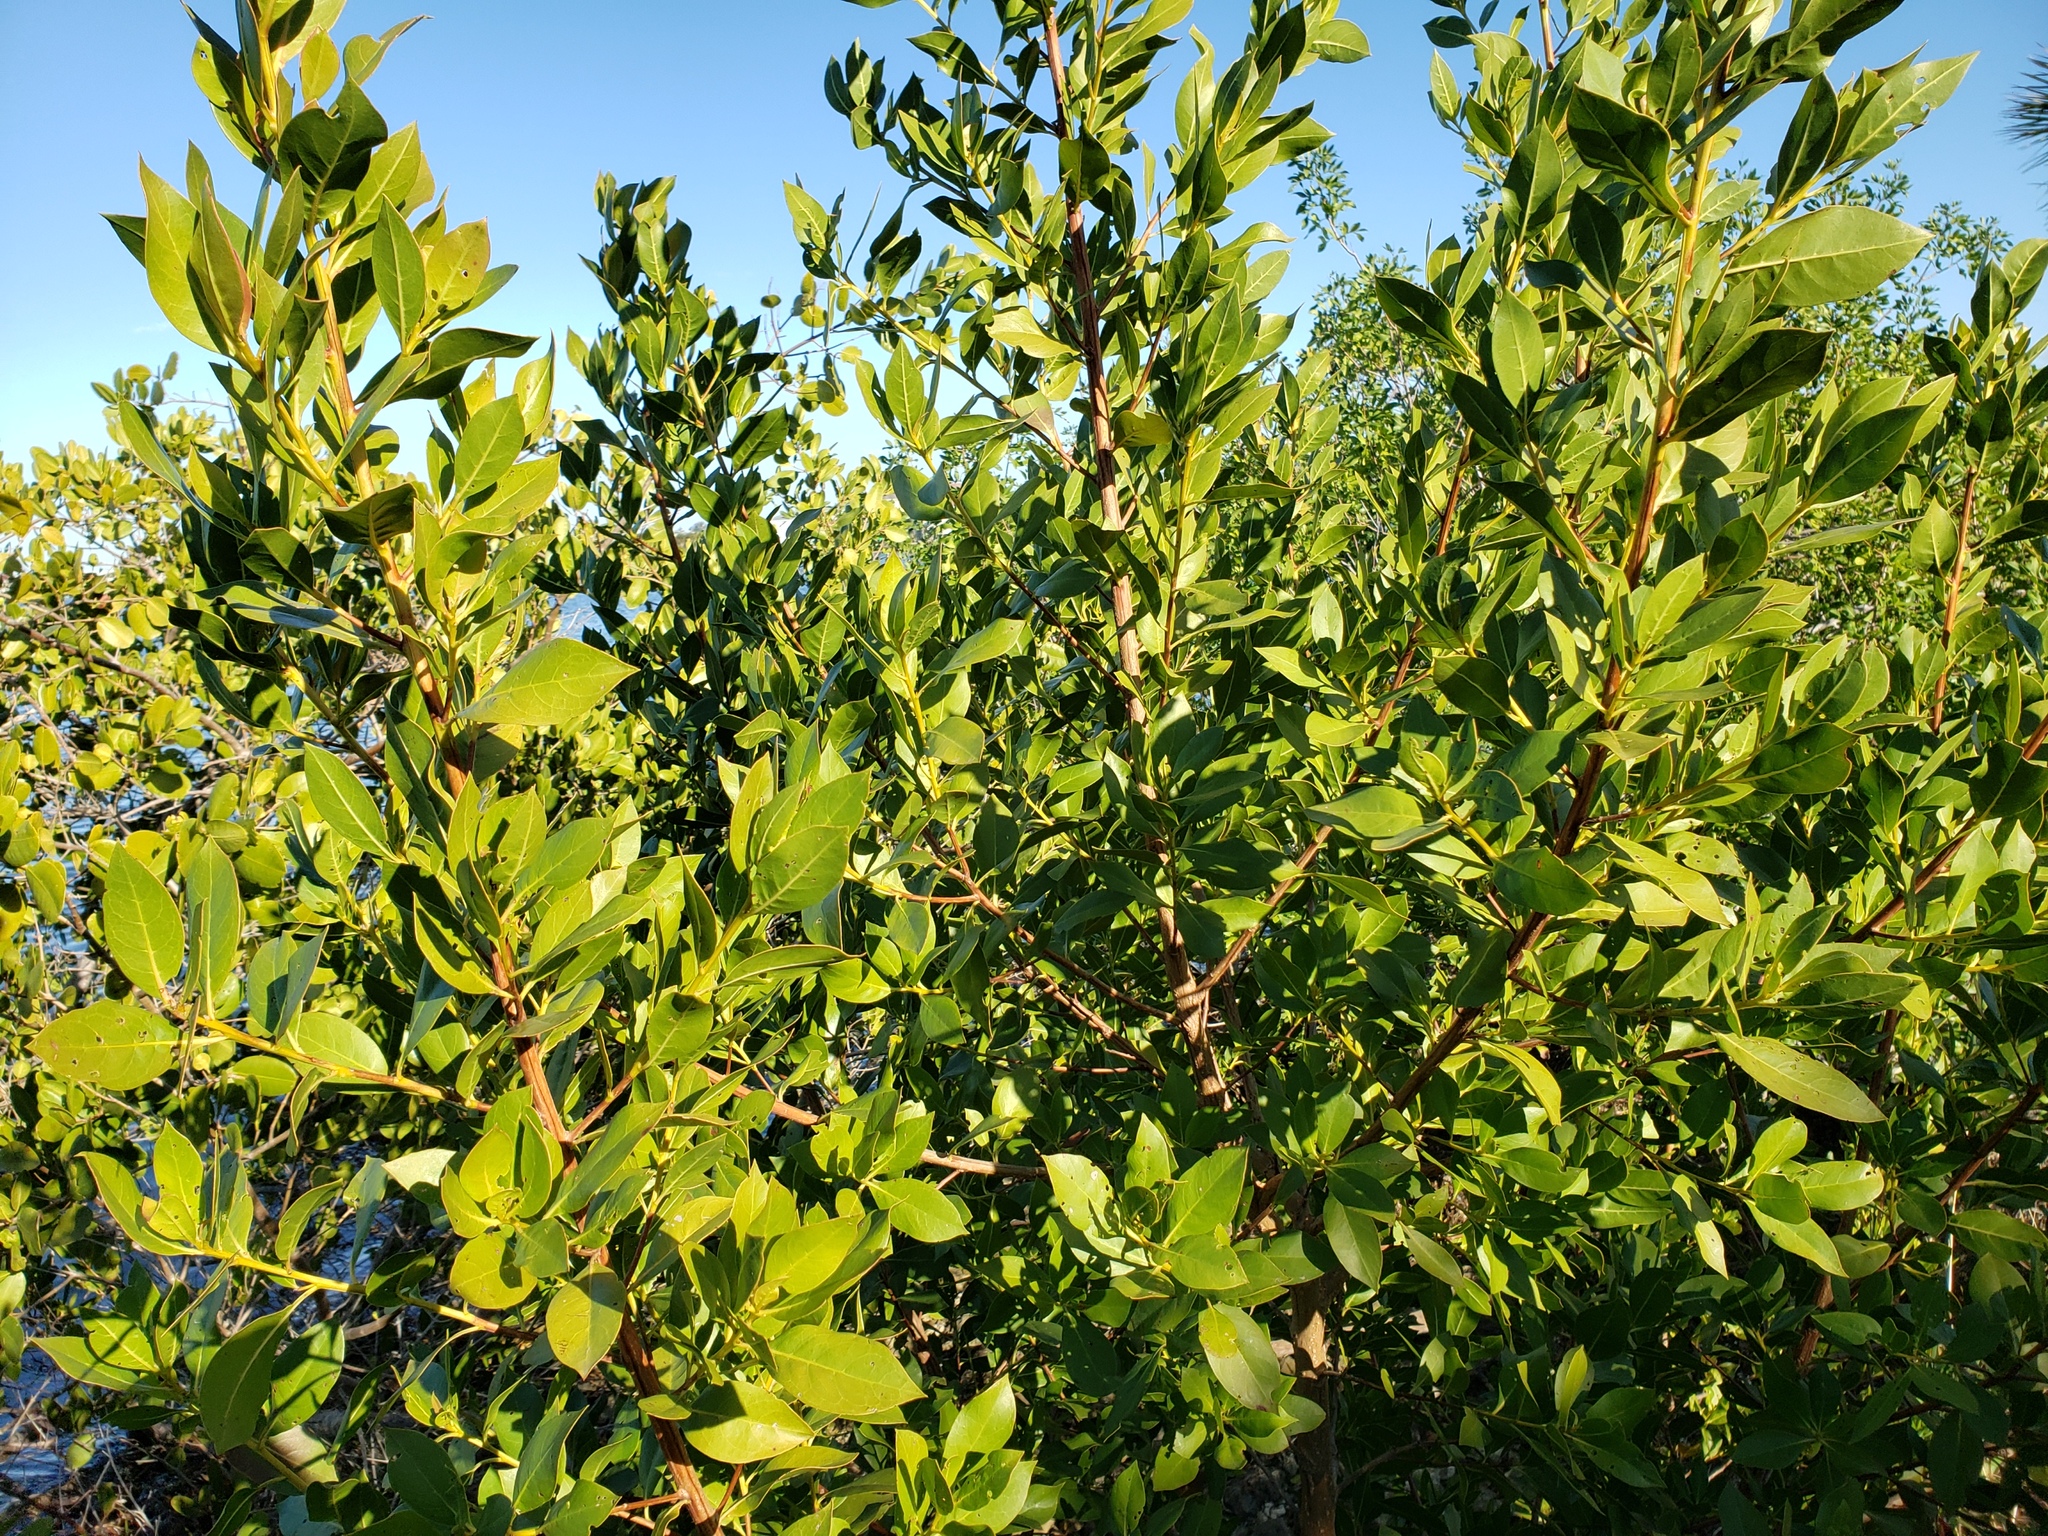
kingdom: Plantae
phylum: Tracheophyta
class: Magnoliopsida
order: Myrtales
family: Combretaceae
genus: Conocarpus
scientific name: Conocarpus erectus
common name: Button mangrove
